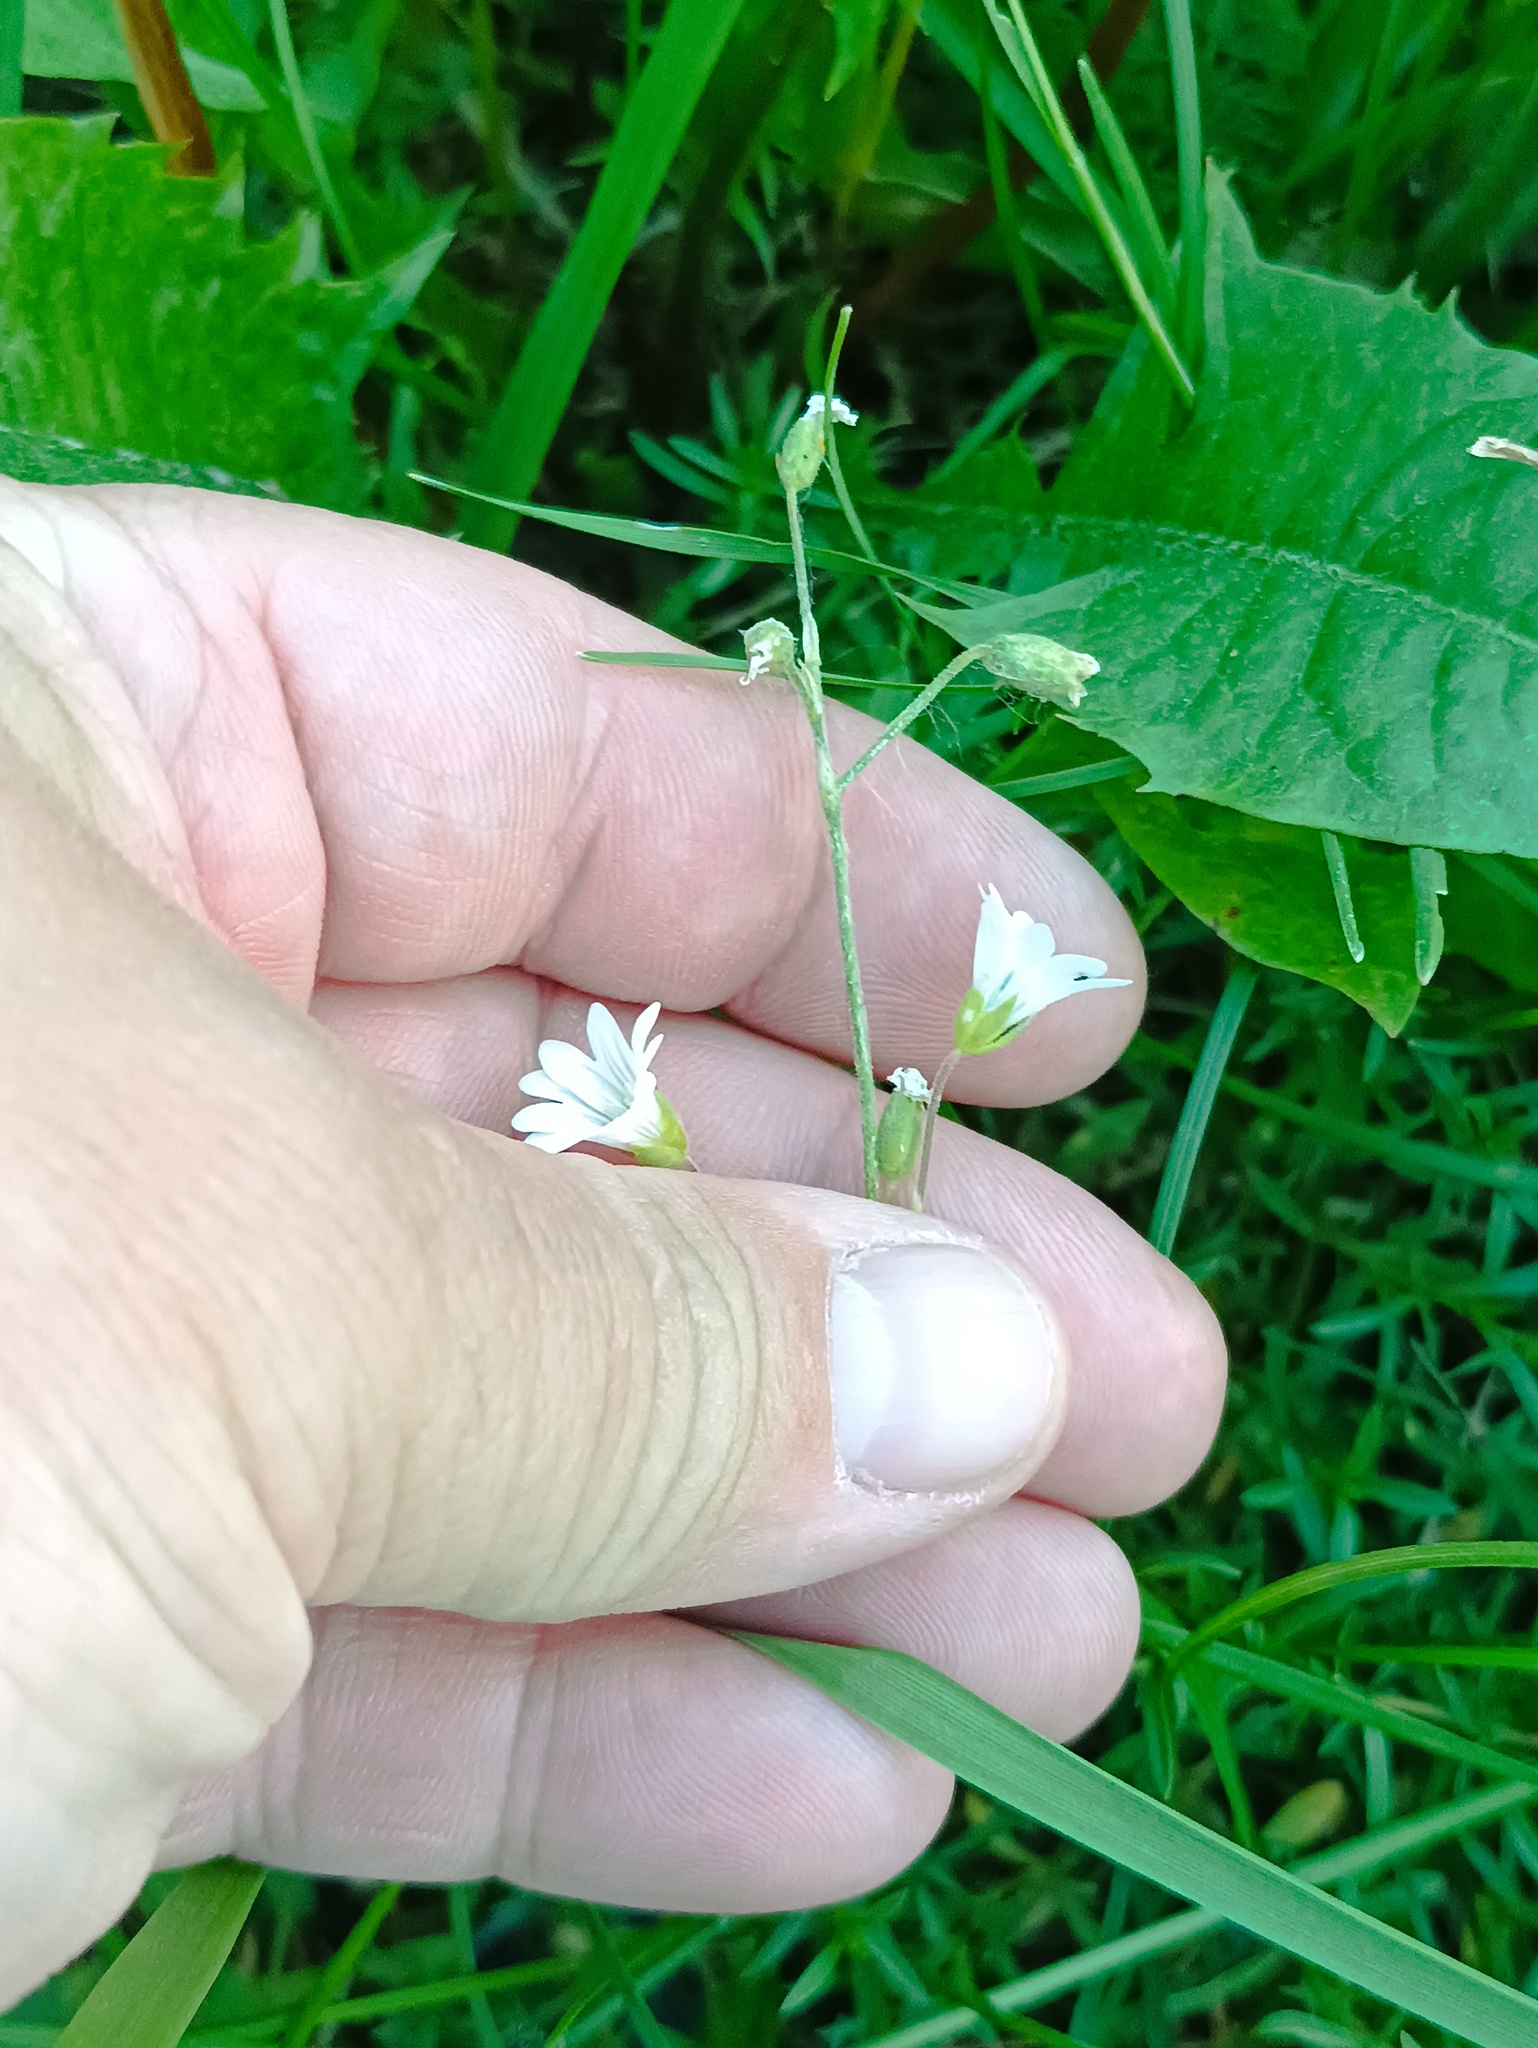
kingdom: Plantae
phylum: Tracheophyta
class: Magnoliopsida
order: Caryophyllales
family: Caryophyllaceae
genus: Cerastium
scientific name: Cerastium arvense
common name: Field mouse-ear
